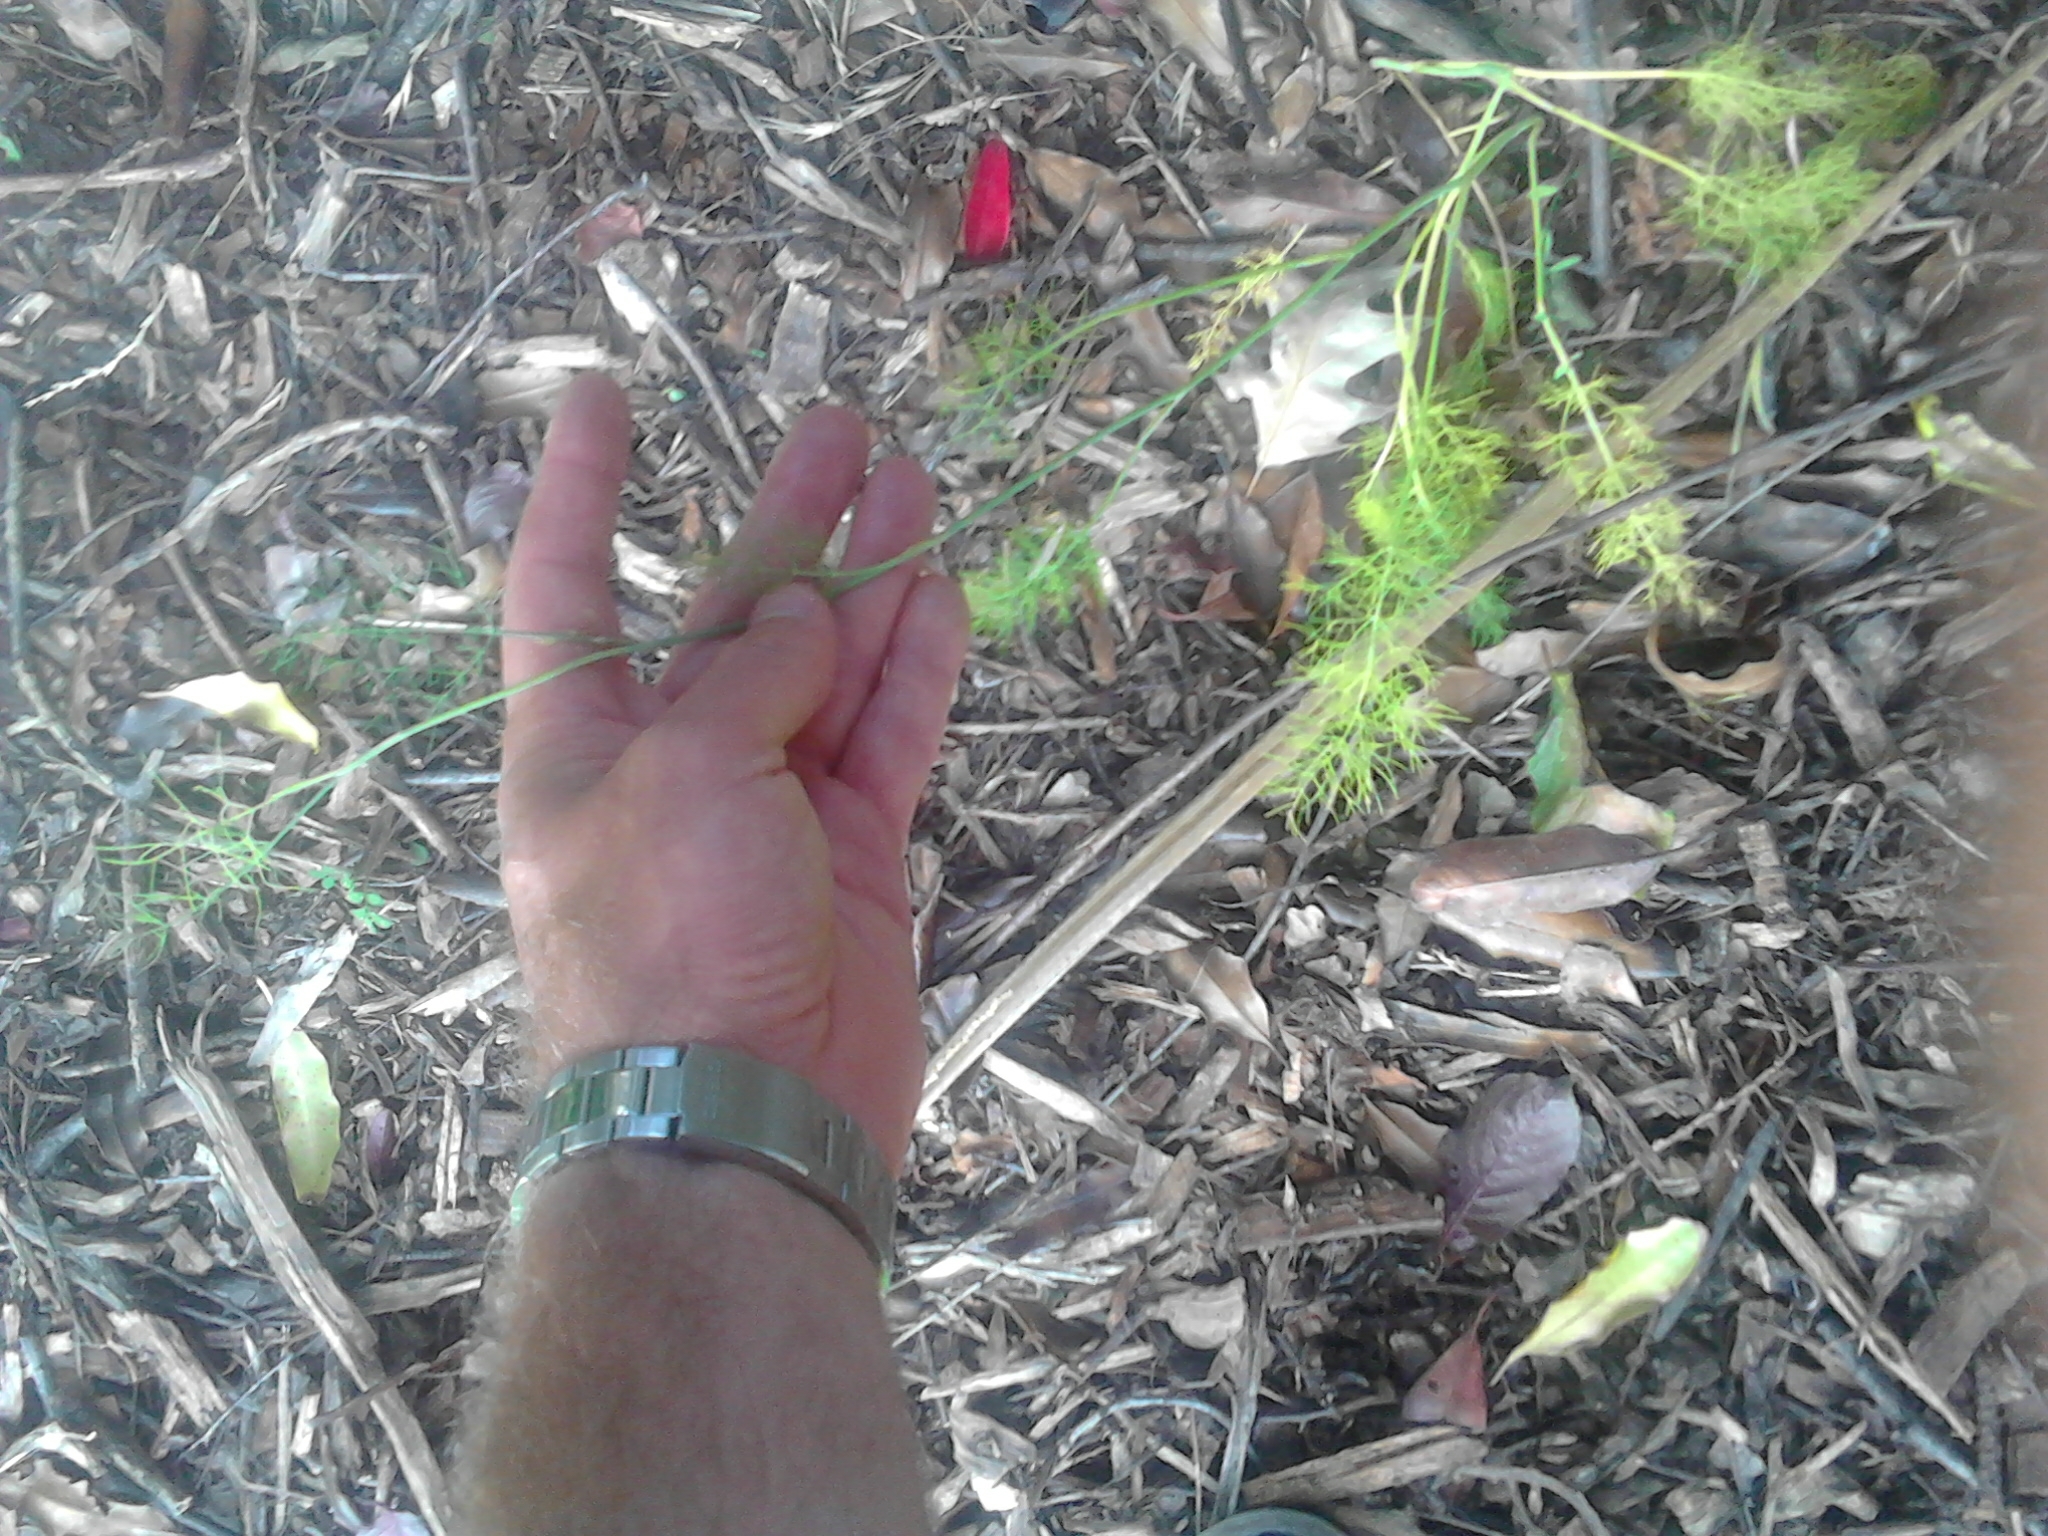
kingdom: Plantae
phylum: Tracheophyta
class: Magnoliopsida
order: Apiales
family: Apiaceae
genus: Foeniculum
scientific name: Foeniculum vulgare
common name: Fennel
